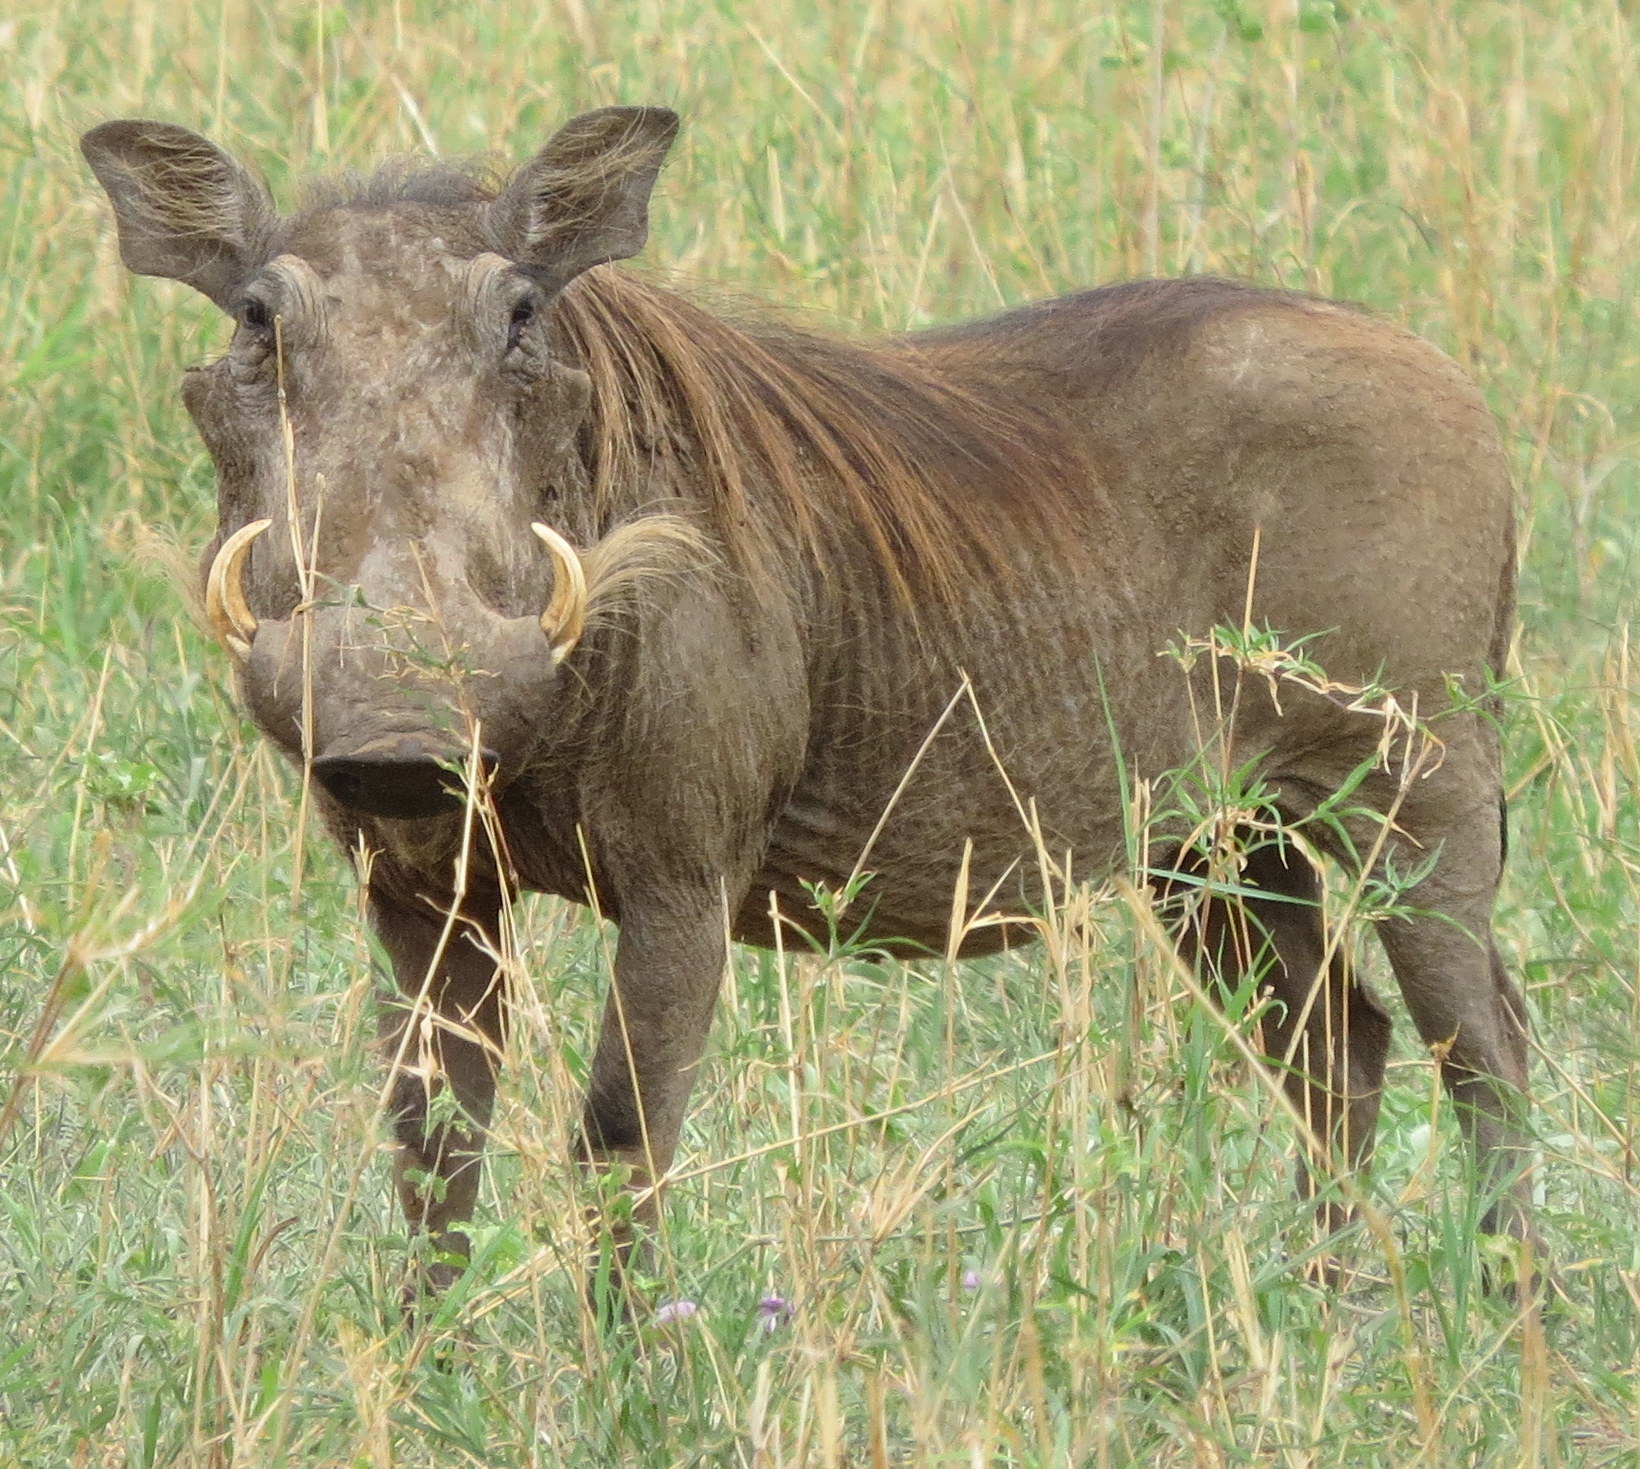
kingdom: Animalia
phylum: Chordata
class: Mammalia
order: Artiodactyla
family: Suidae
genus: Phacochoerus
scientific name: Phacochoerus africanus
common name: Common warthog
